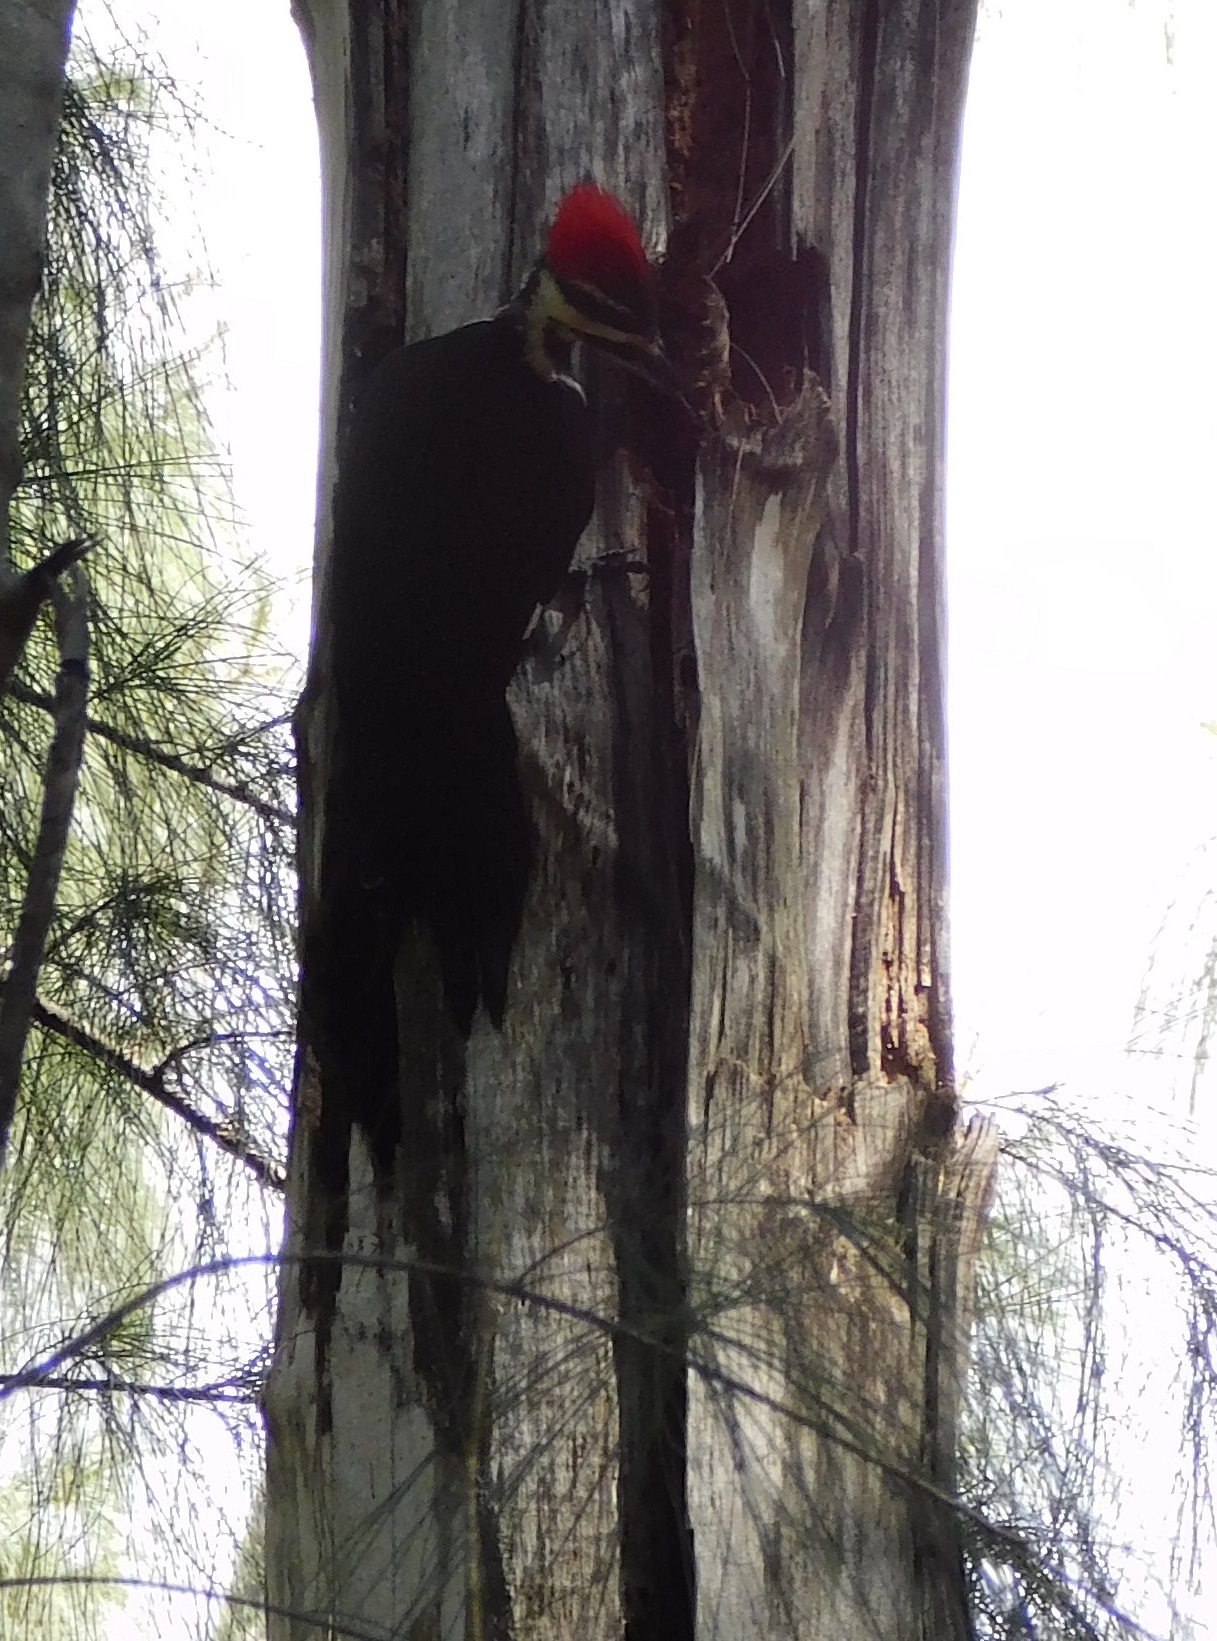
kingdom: Animalia
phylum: Chordata
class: Aves
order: Piciformes
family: Picidae
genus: Dryocopus
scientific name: Dryocopus pileatus
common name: Pileated woodpecker
